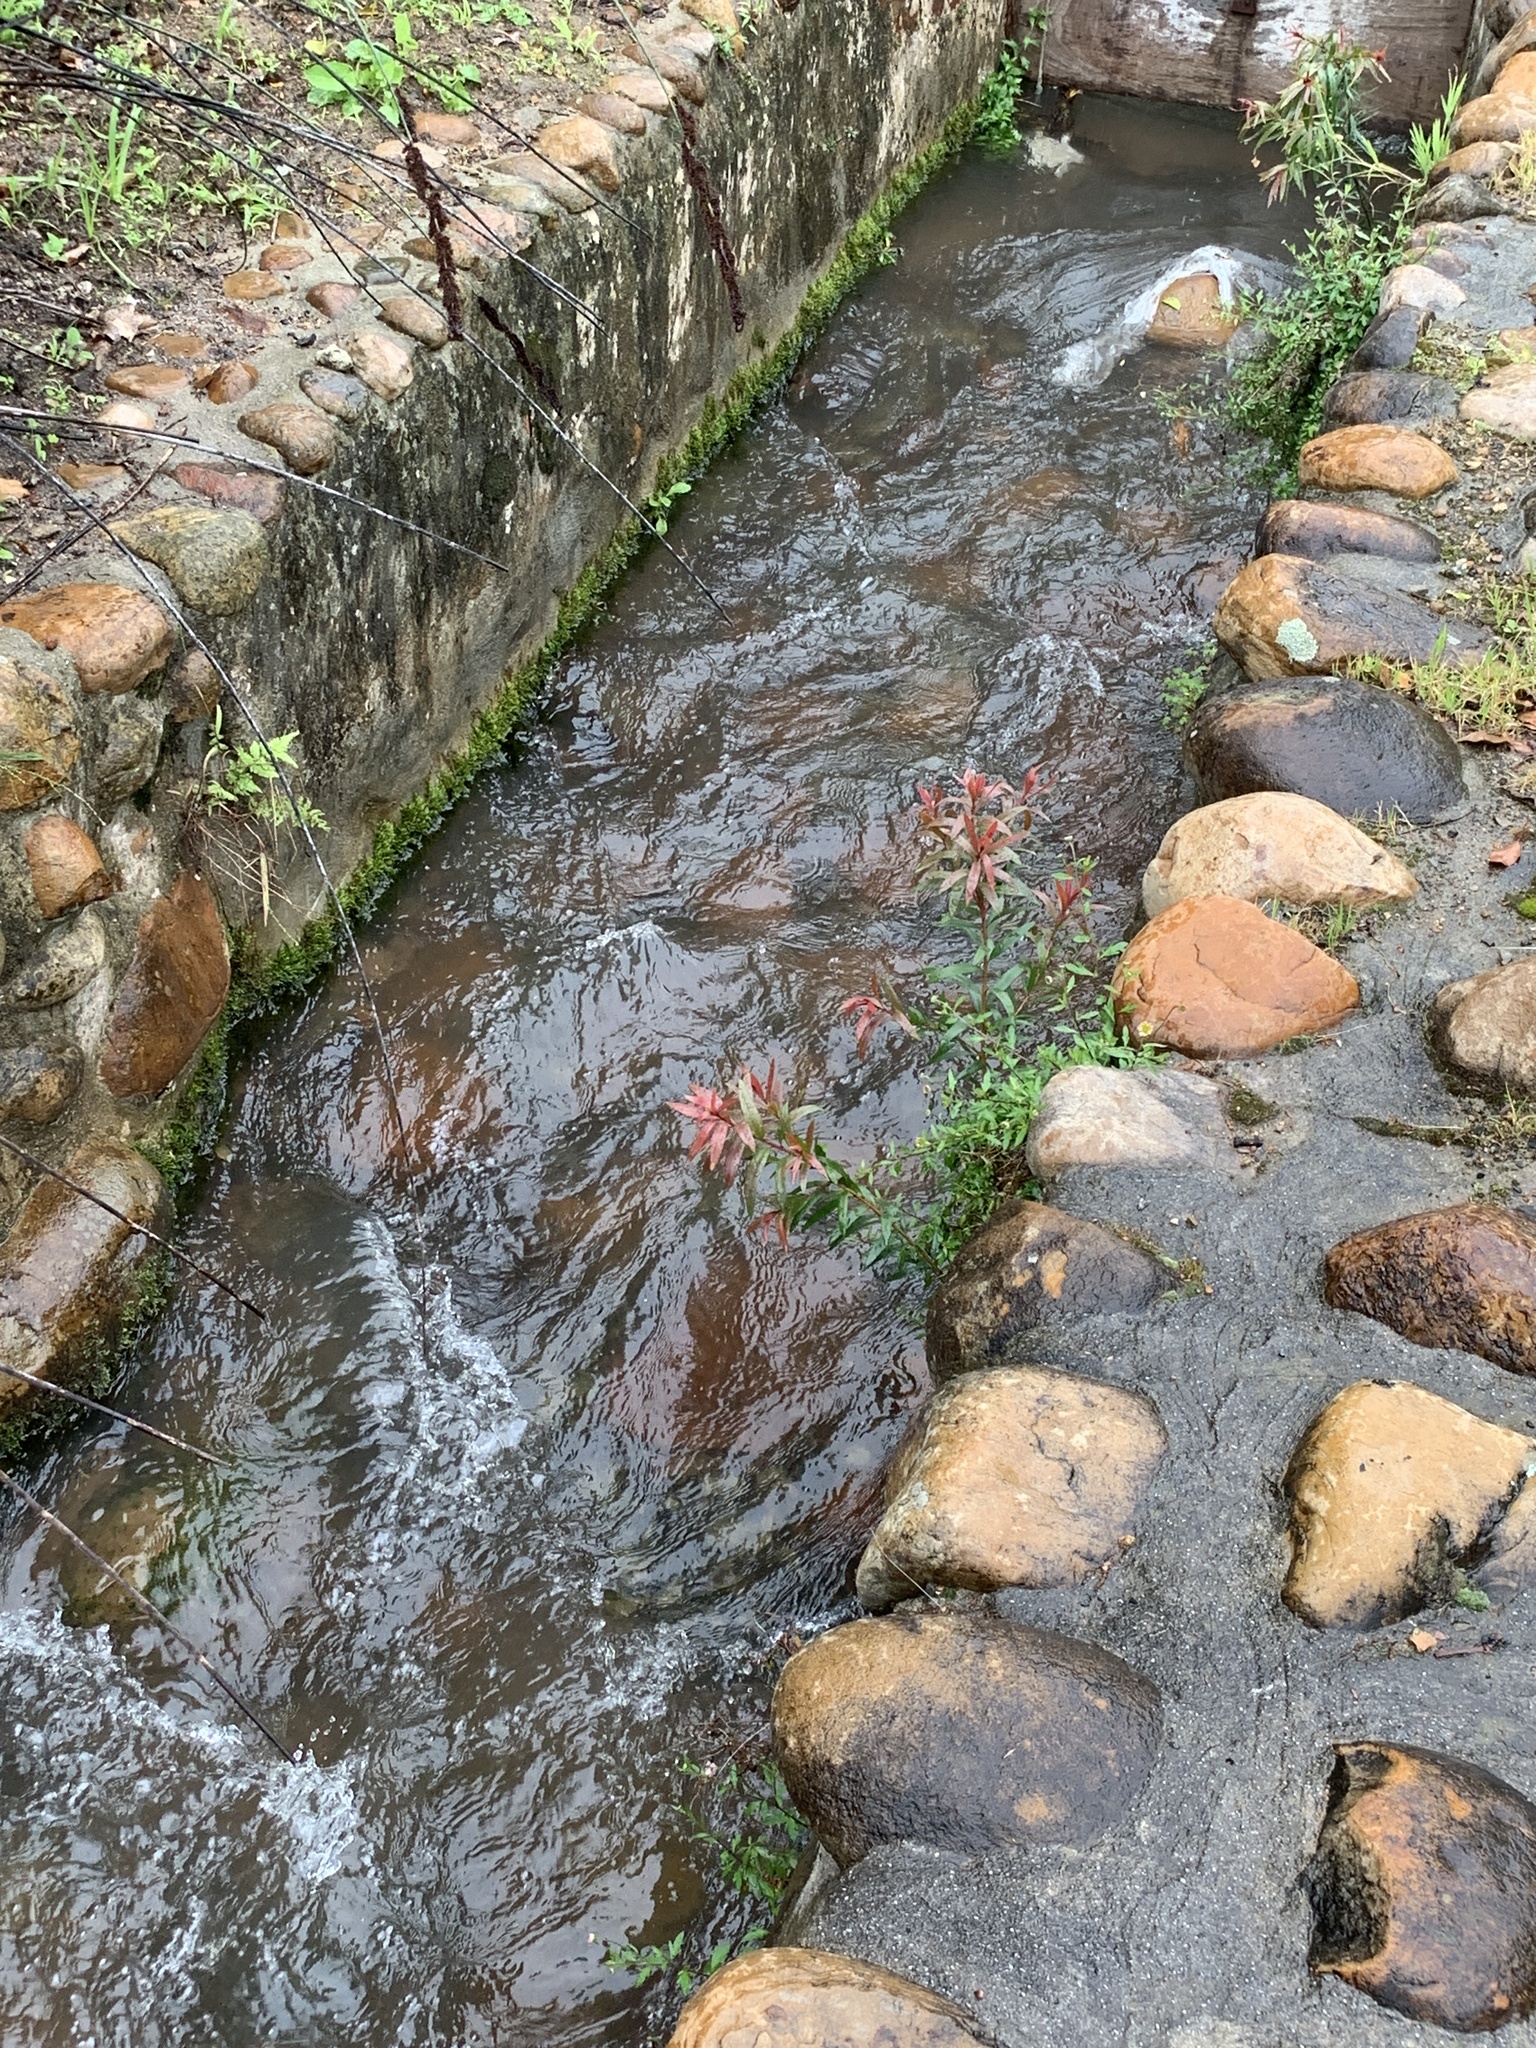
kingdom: Plantae
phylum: Tracheophyta
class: Magnoliopsida
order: Myrtales
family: Myrtaceae
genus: Callistemon
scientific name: Callistemon viminalis
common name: Drooping bottlebrush
